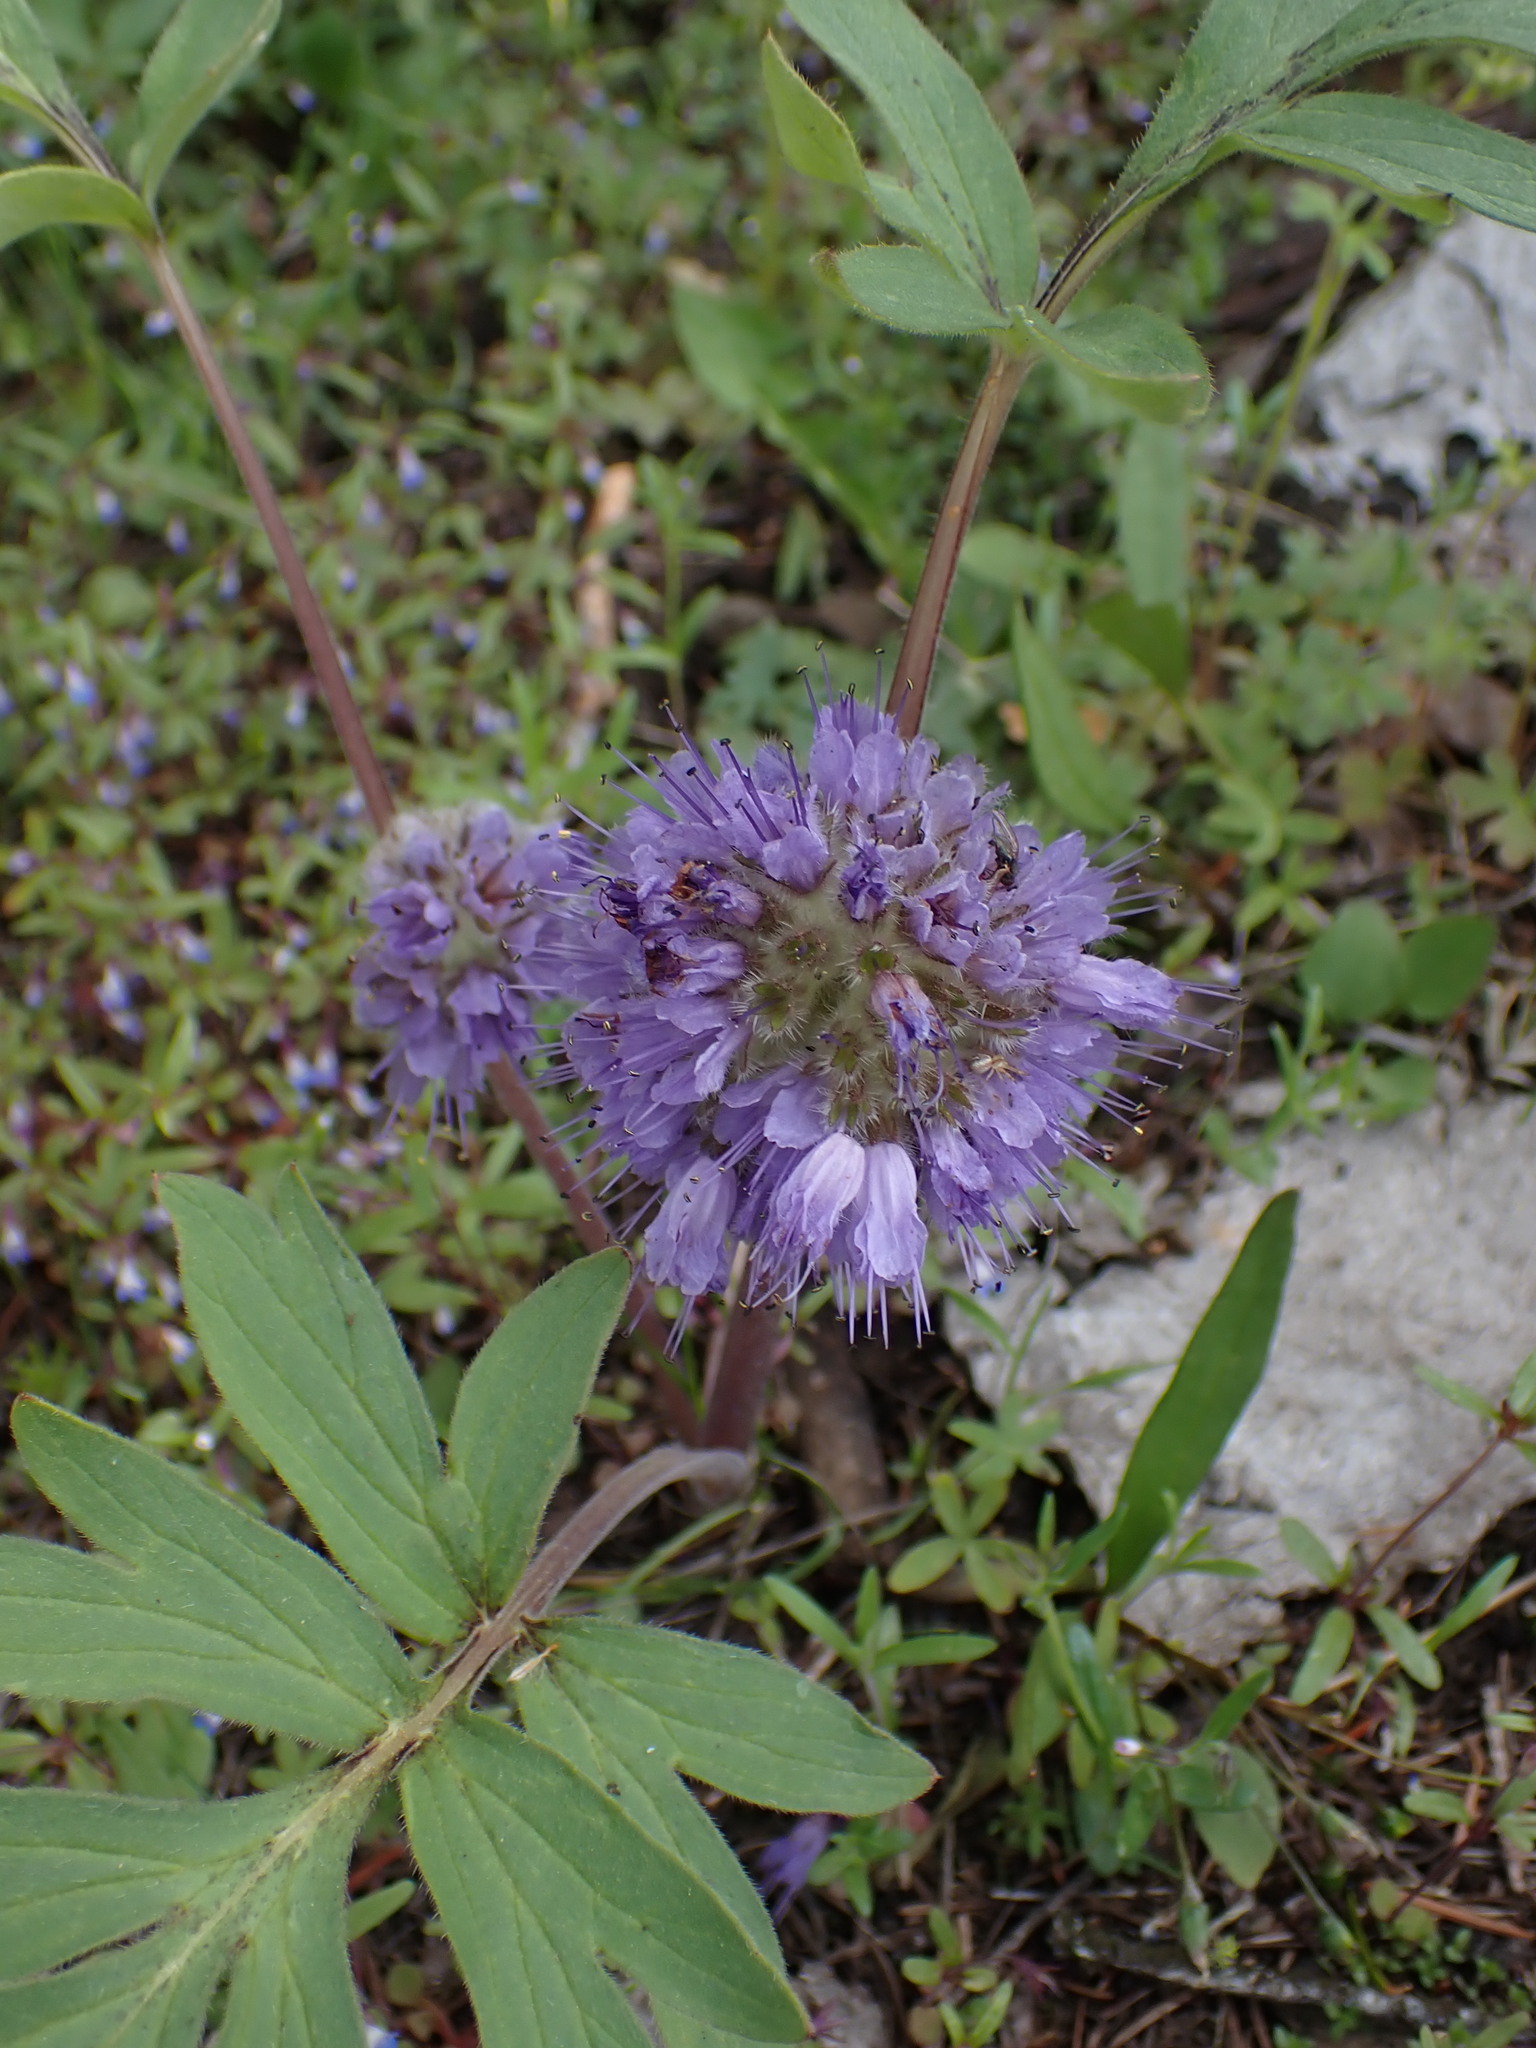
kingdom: Plantae
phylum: Tracheophyta
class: Magnoliopsida
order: Boraginales
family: Hydrophyllaceae
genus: Hydrophyllum
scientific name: Hydrophyllum capitatum
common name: Woollen-breeches
